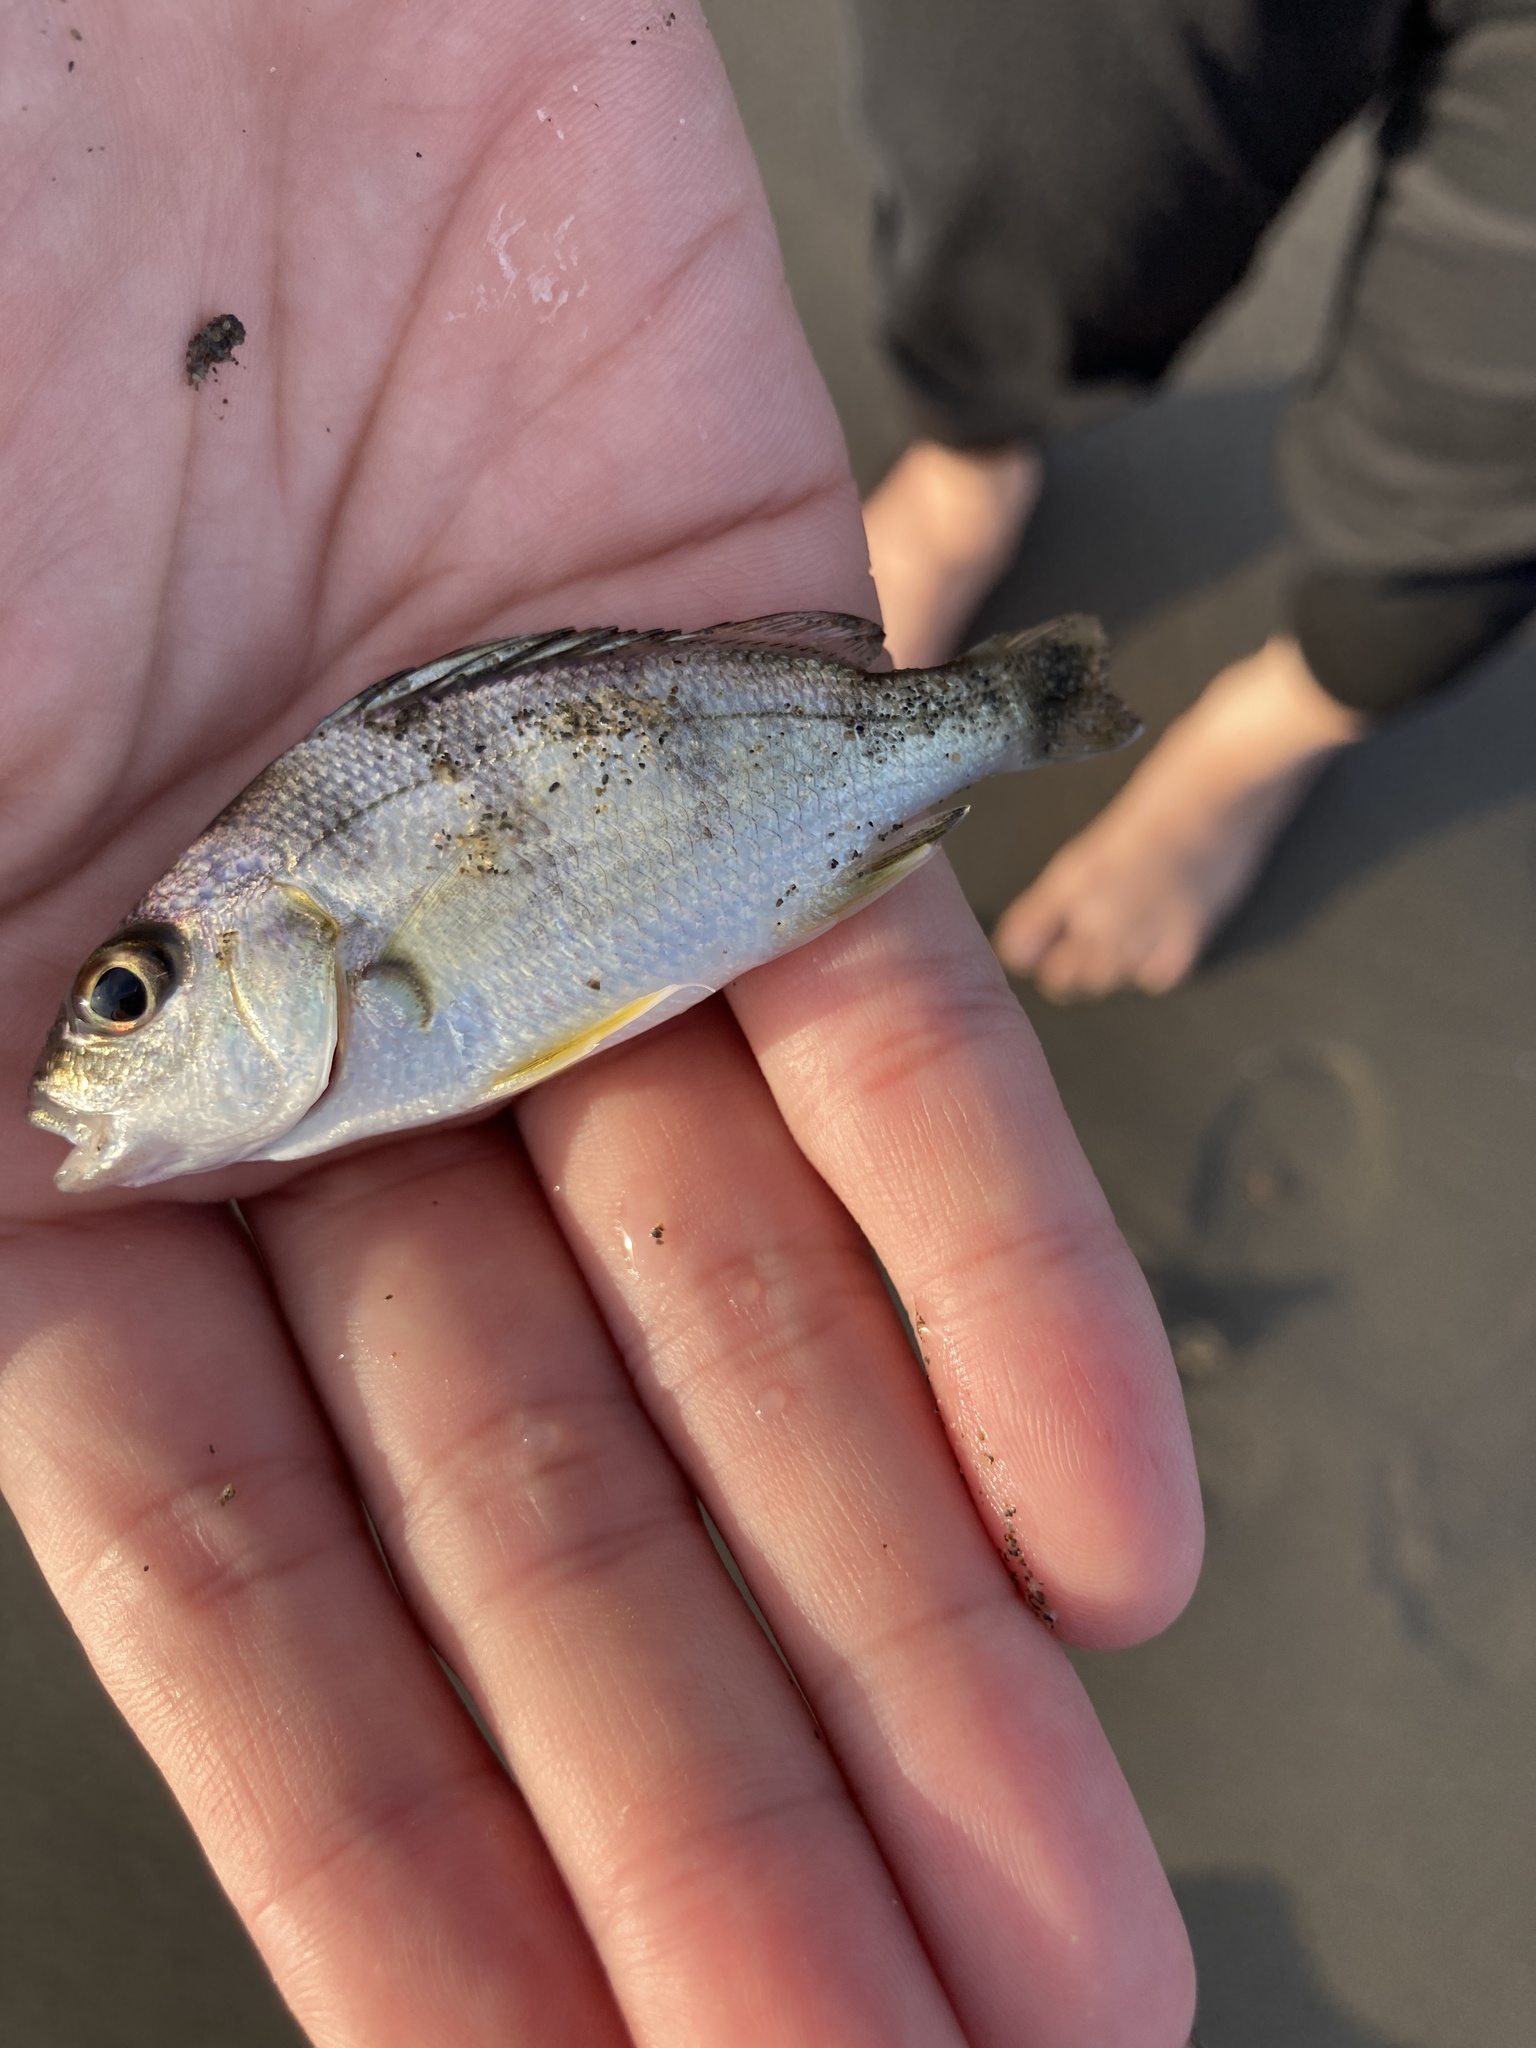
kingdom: Animalia
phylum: Chordata
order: Perciformes
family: Haemulidae
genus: Pomadasys
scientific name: Pomadasys maculatus
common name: Saddle grunt
